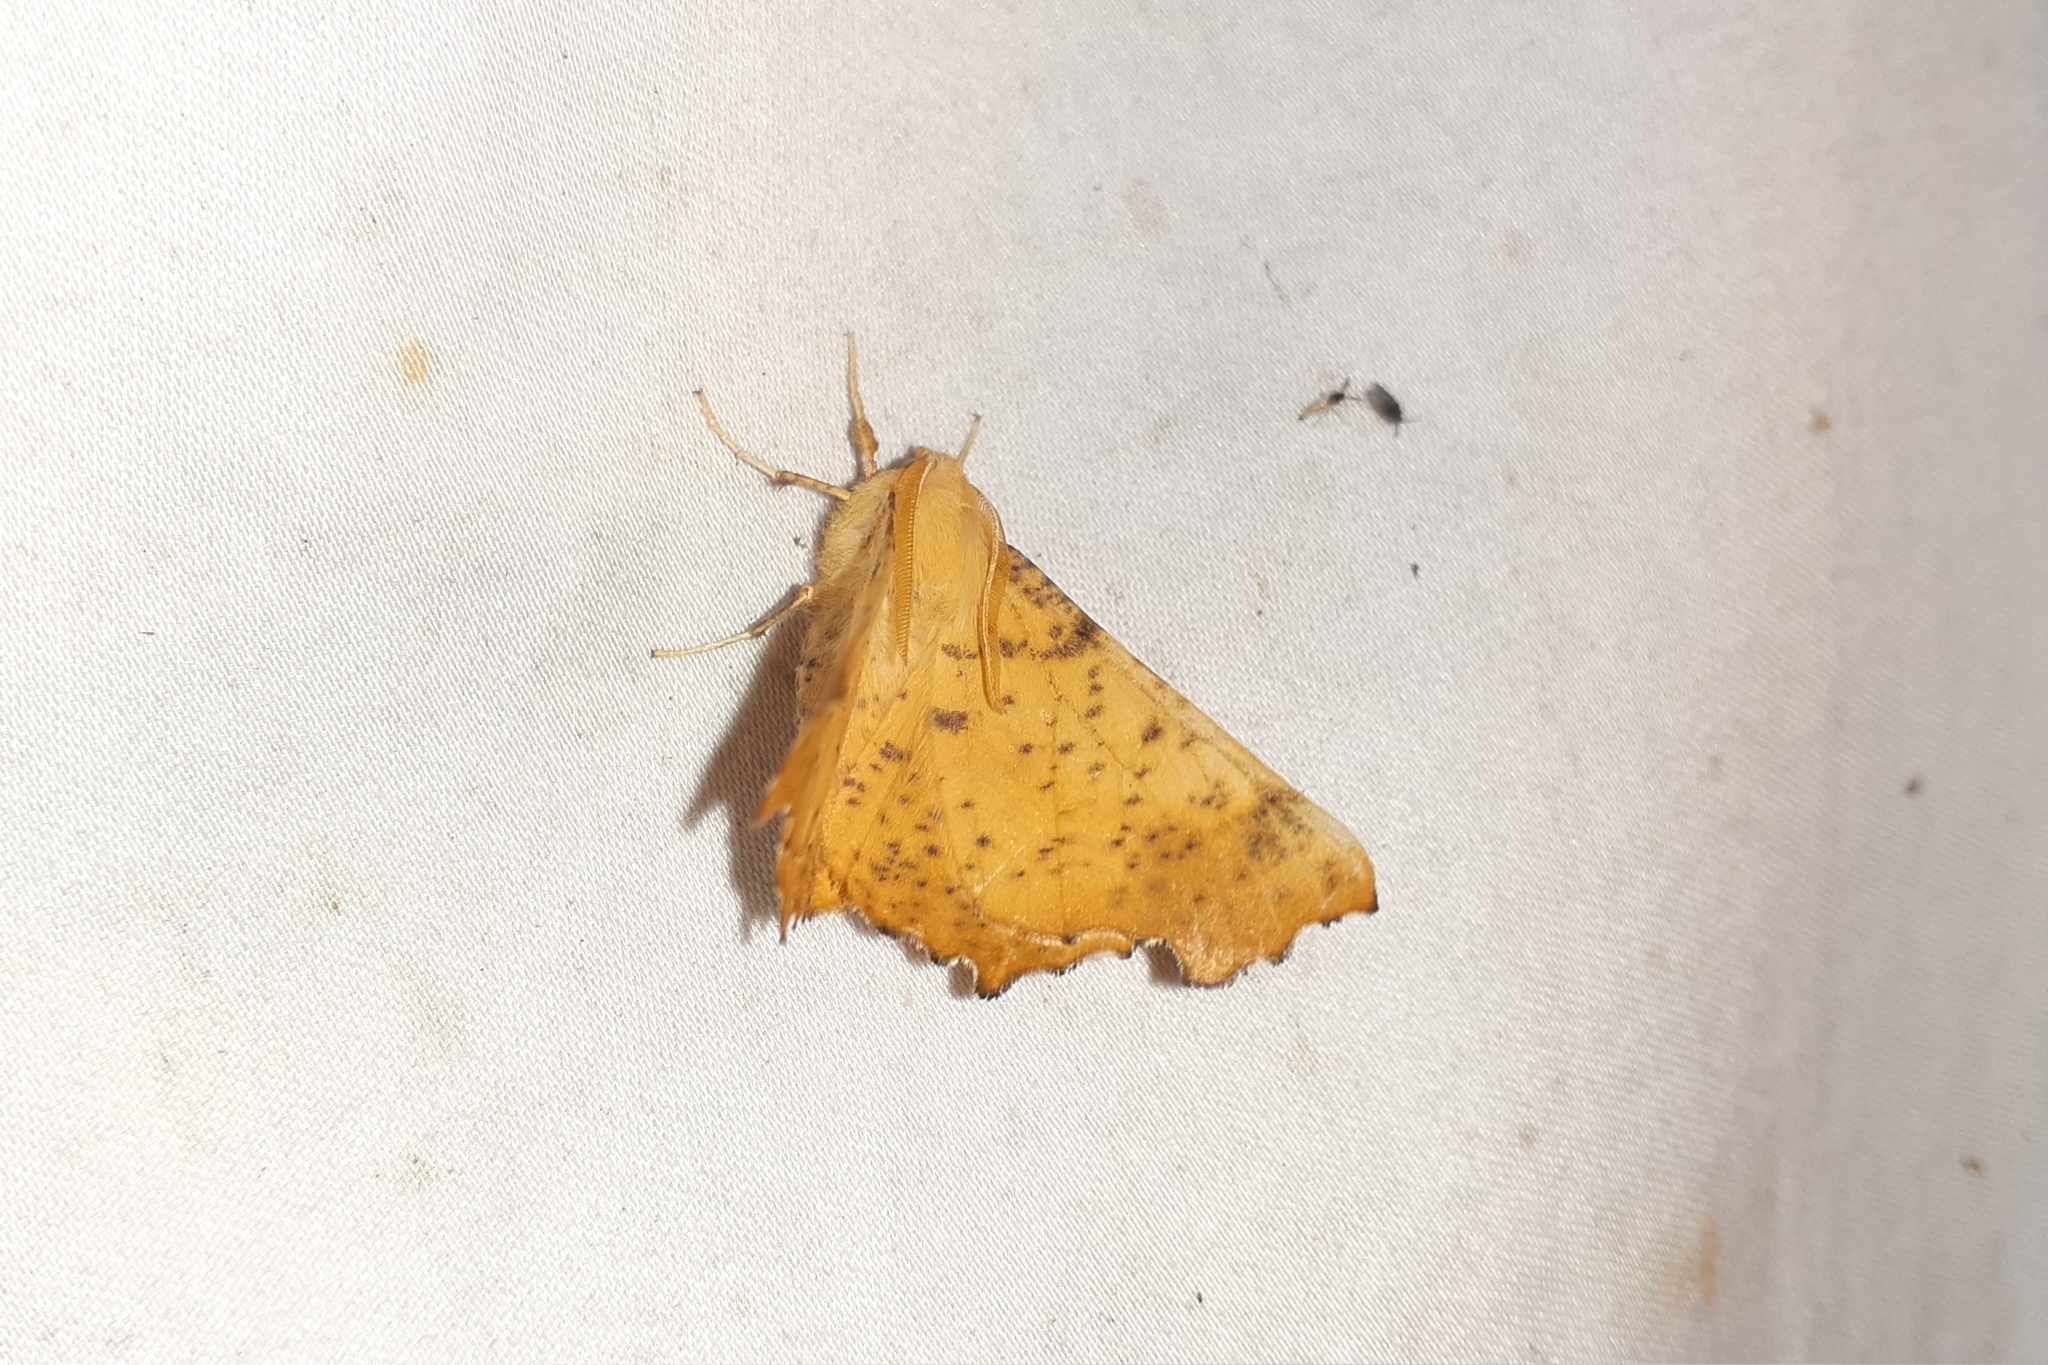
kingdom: Animalia
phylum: Arthropoda
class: Insecta
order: Lepidoptera
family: Geometridae
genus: Ennomos
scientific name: Ennomos magnaria
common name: Maple spanworm
